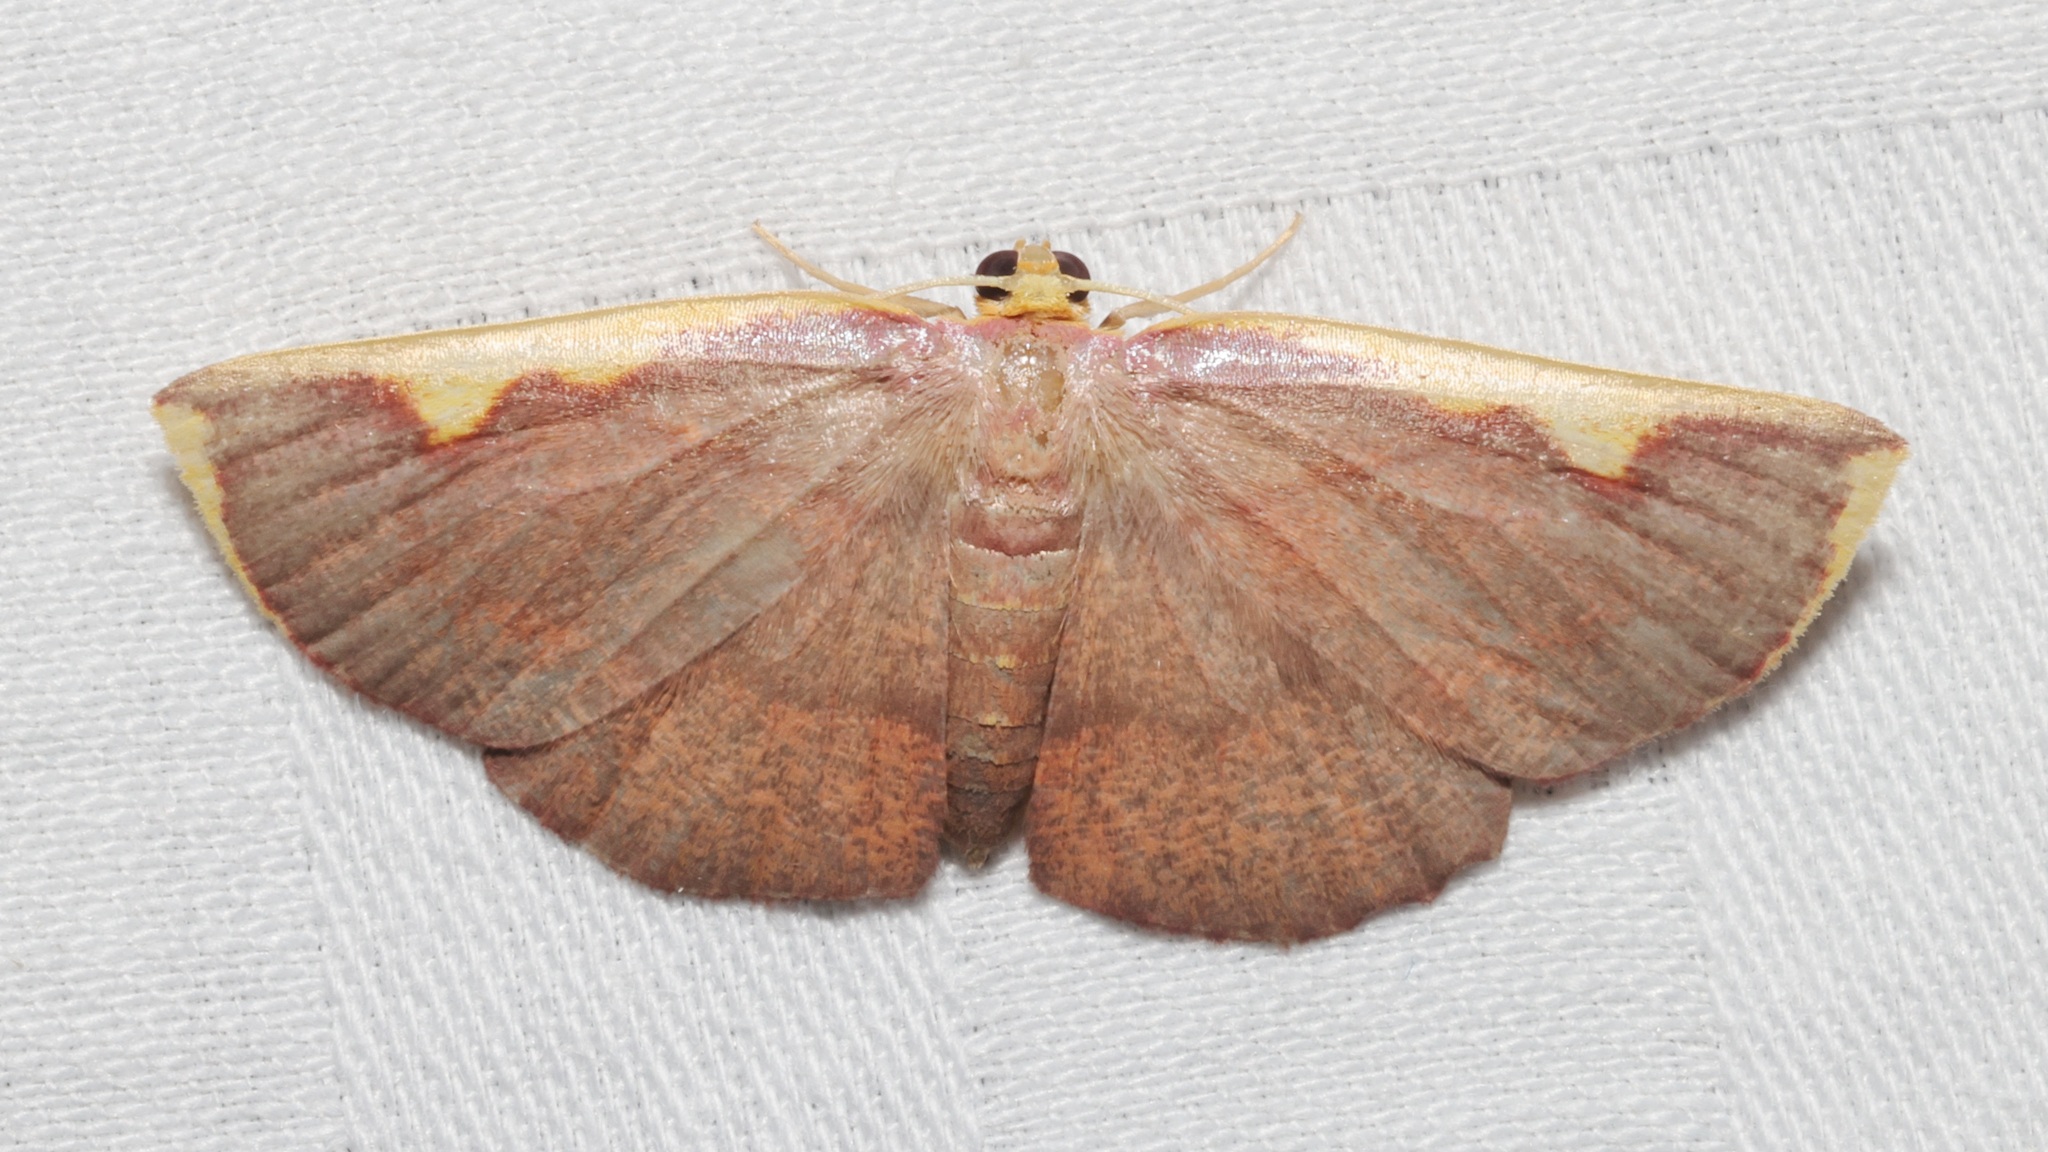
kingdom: Animalia
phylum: Arthropoda
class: Insecta
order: Lepidoptera
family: Geometridae
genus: Nothomiza
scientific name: Nothomiza flavicosta
